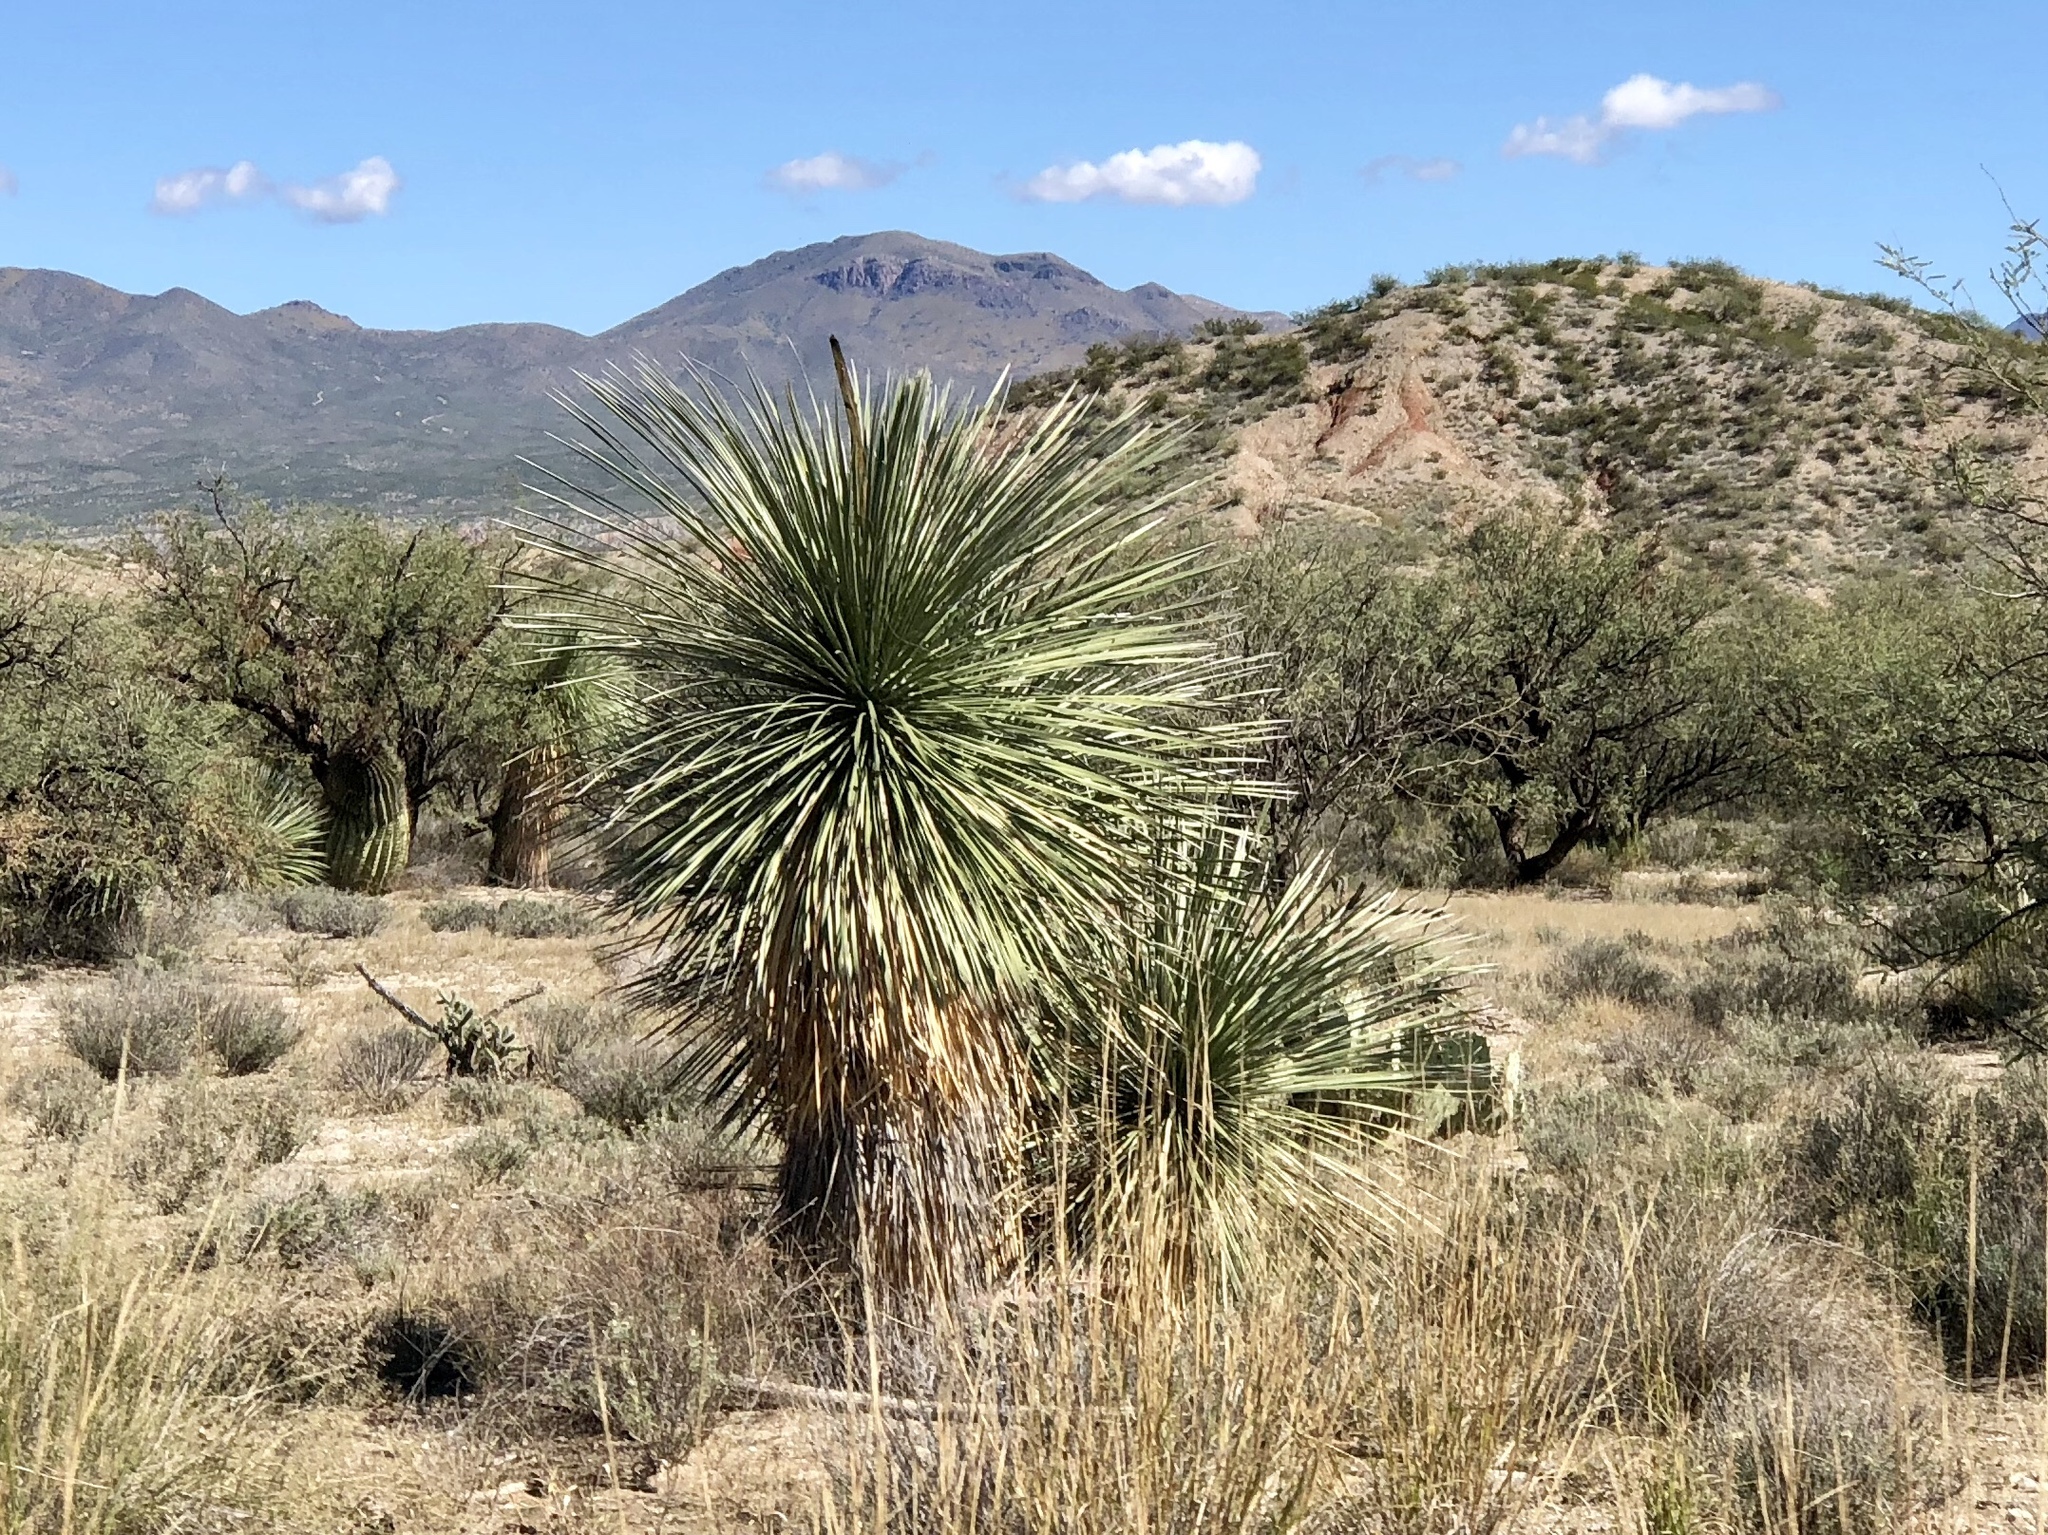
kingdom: Plantae
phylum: Tracheophyta
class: Liliopsida
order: Asparagales
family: Asparagaceae
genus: Yucca
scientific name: Yucca elata
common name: Palmella
